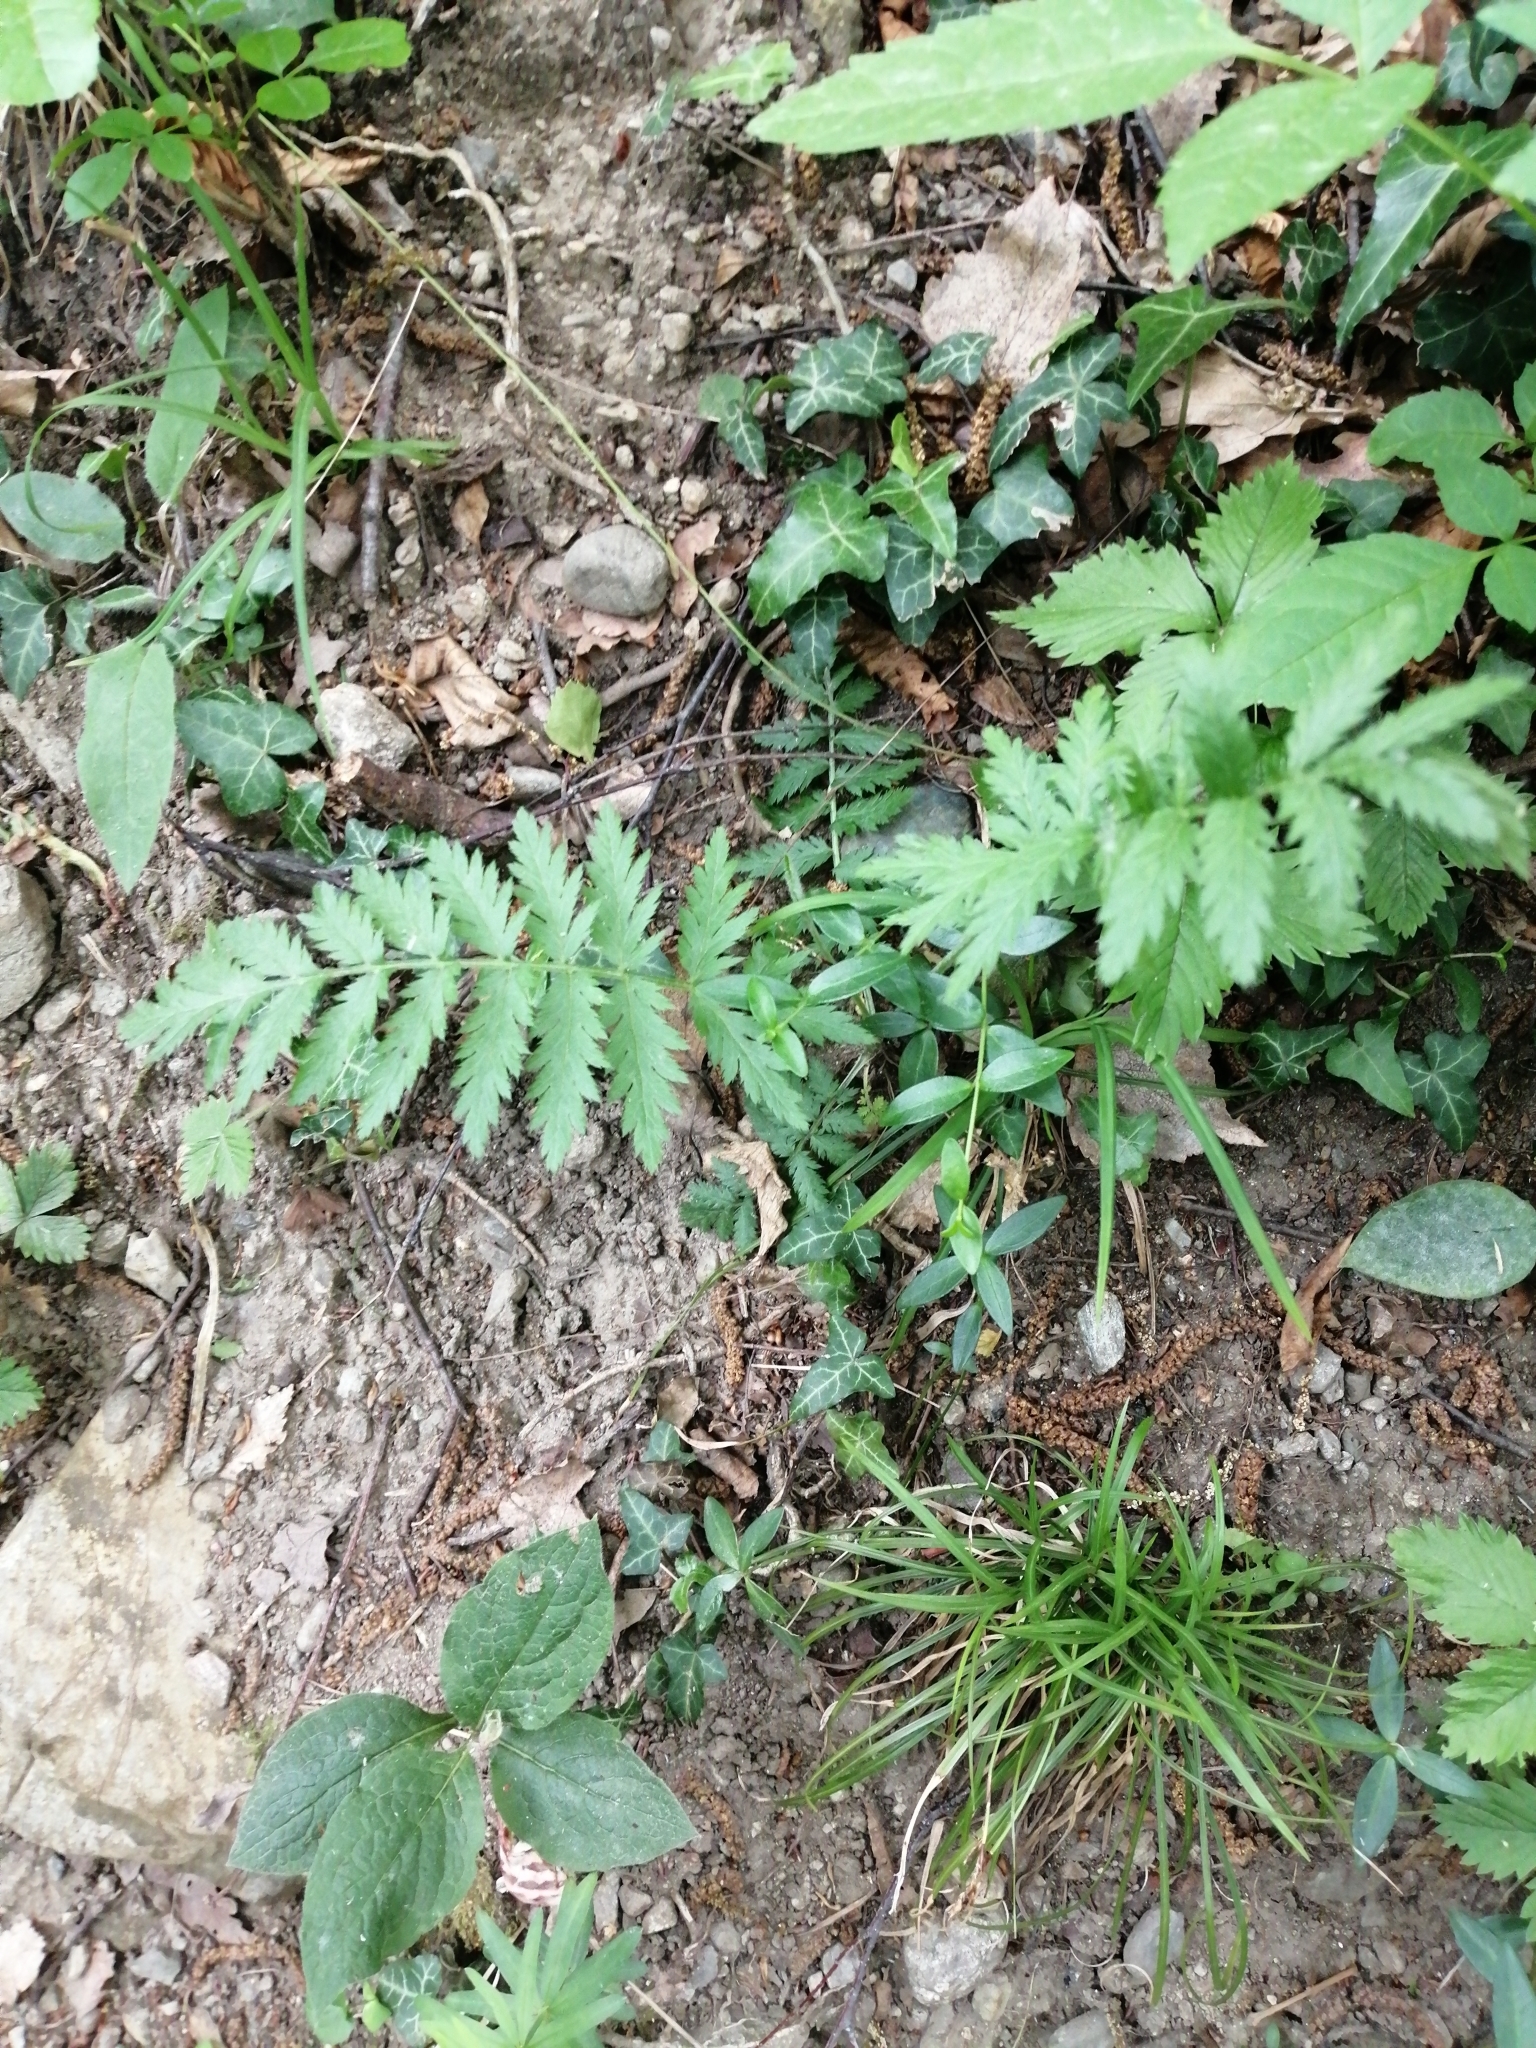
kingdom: Plantae
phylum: Tracheophyta
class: Magnoliopsida
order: Asterales
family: Asteraceae
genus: Tanacetum
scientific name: Tanacetum vulgare
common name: Common tansy
